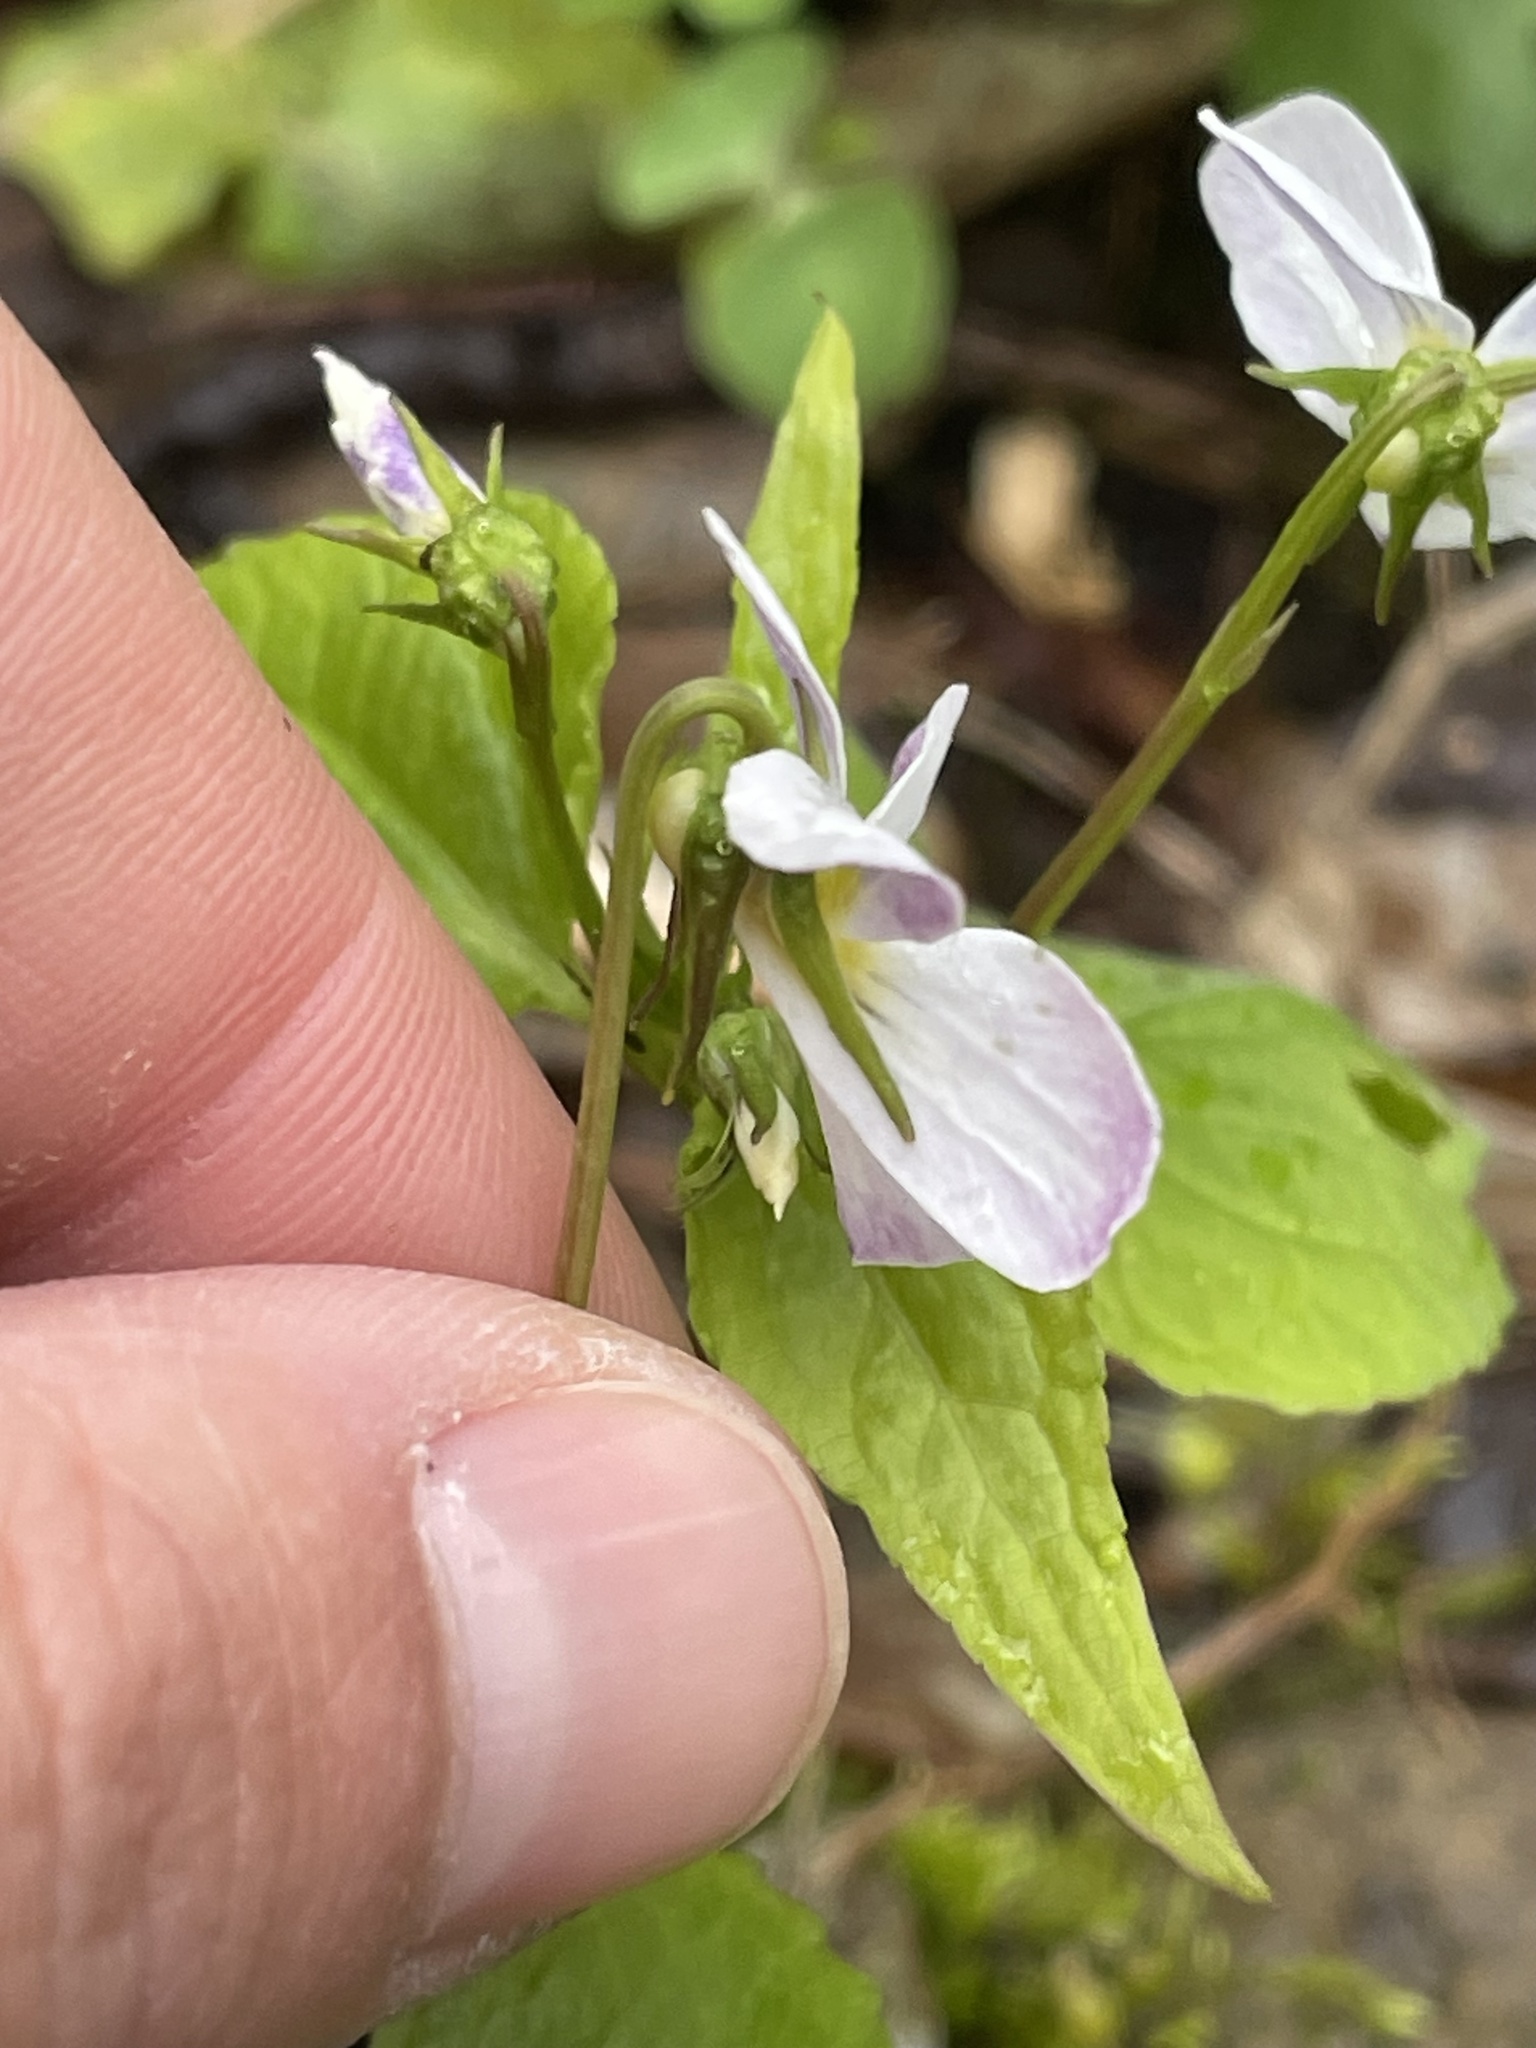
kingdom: Plantae
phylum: Tracheophyta
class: Magnoliopsida
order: Malpighiales
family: Violaceae
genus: Viola
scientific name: Viola canadensis
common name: Canada violet
